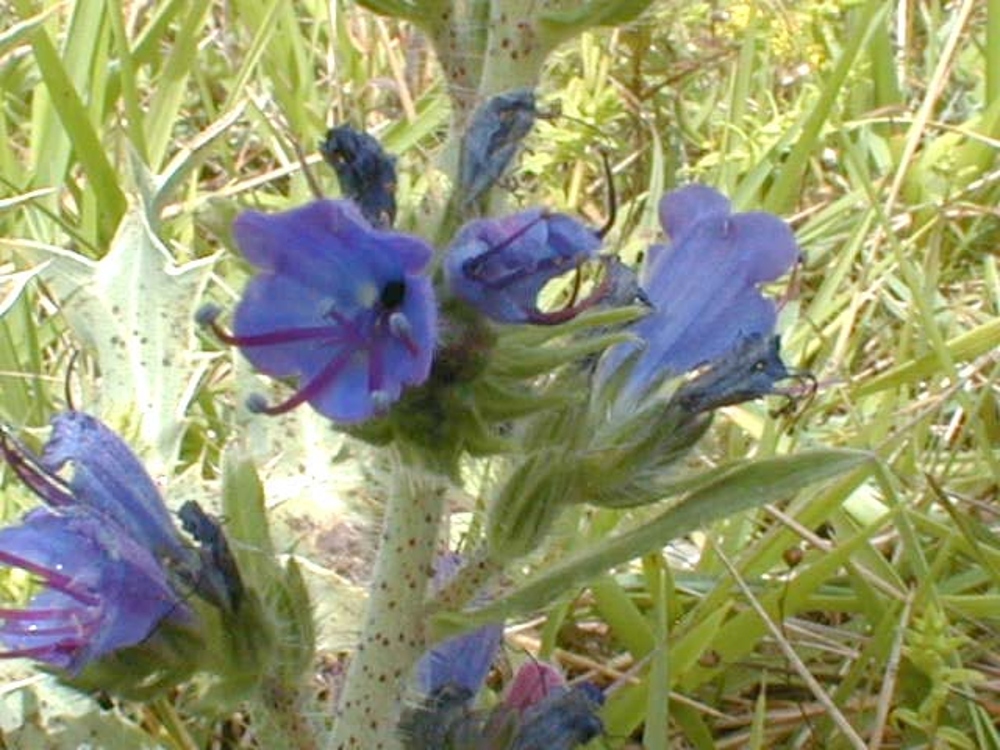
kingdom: Plantae
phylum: Tracheophyta
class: Magnoliopsida
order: Boraginales
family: Boraginaceae
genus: Echium
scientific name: Echium vulgare
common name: Common viper's bugloss
